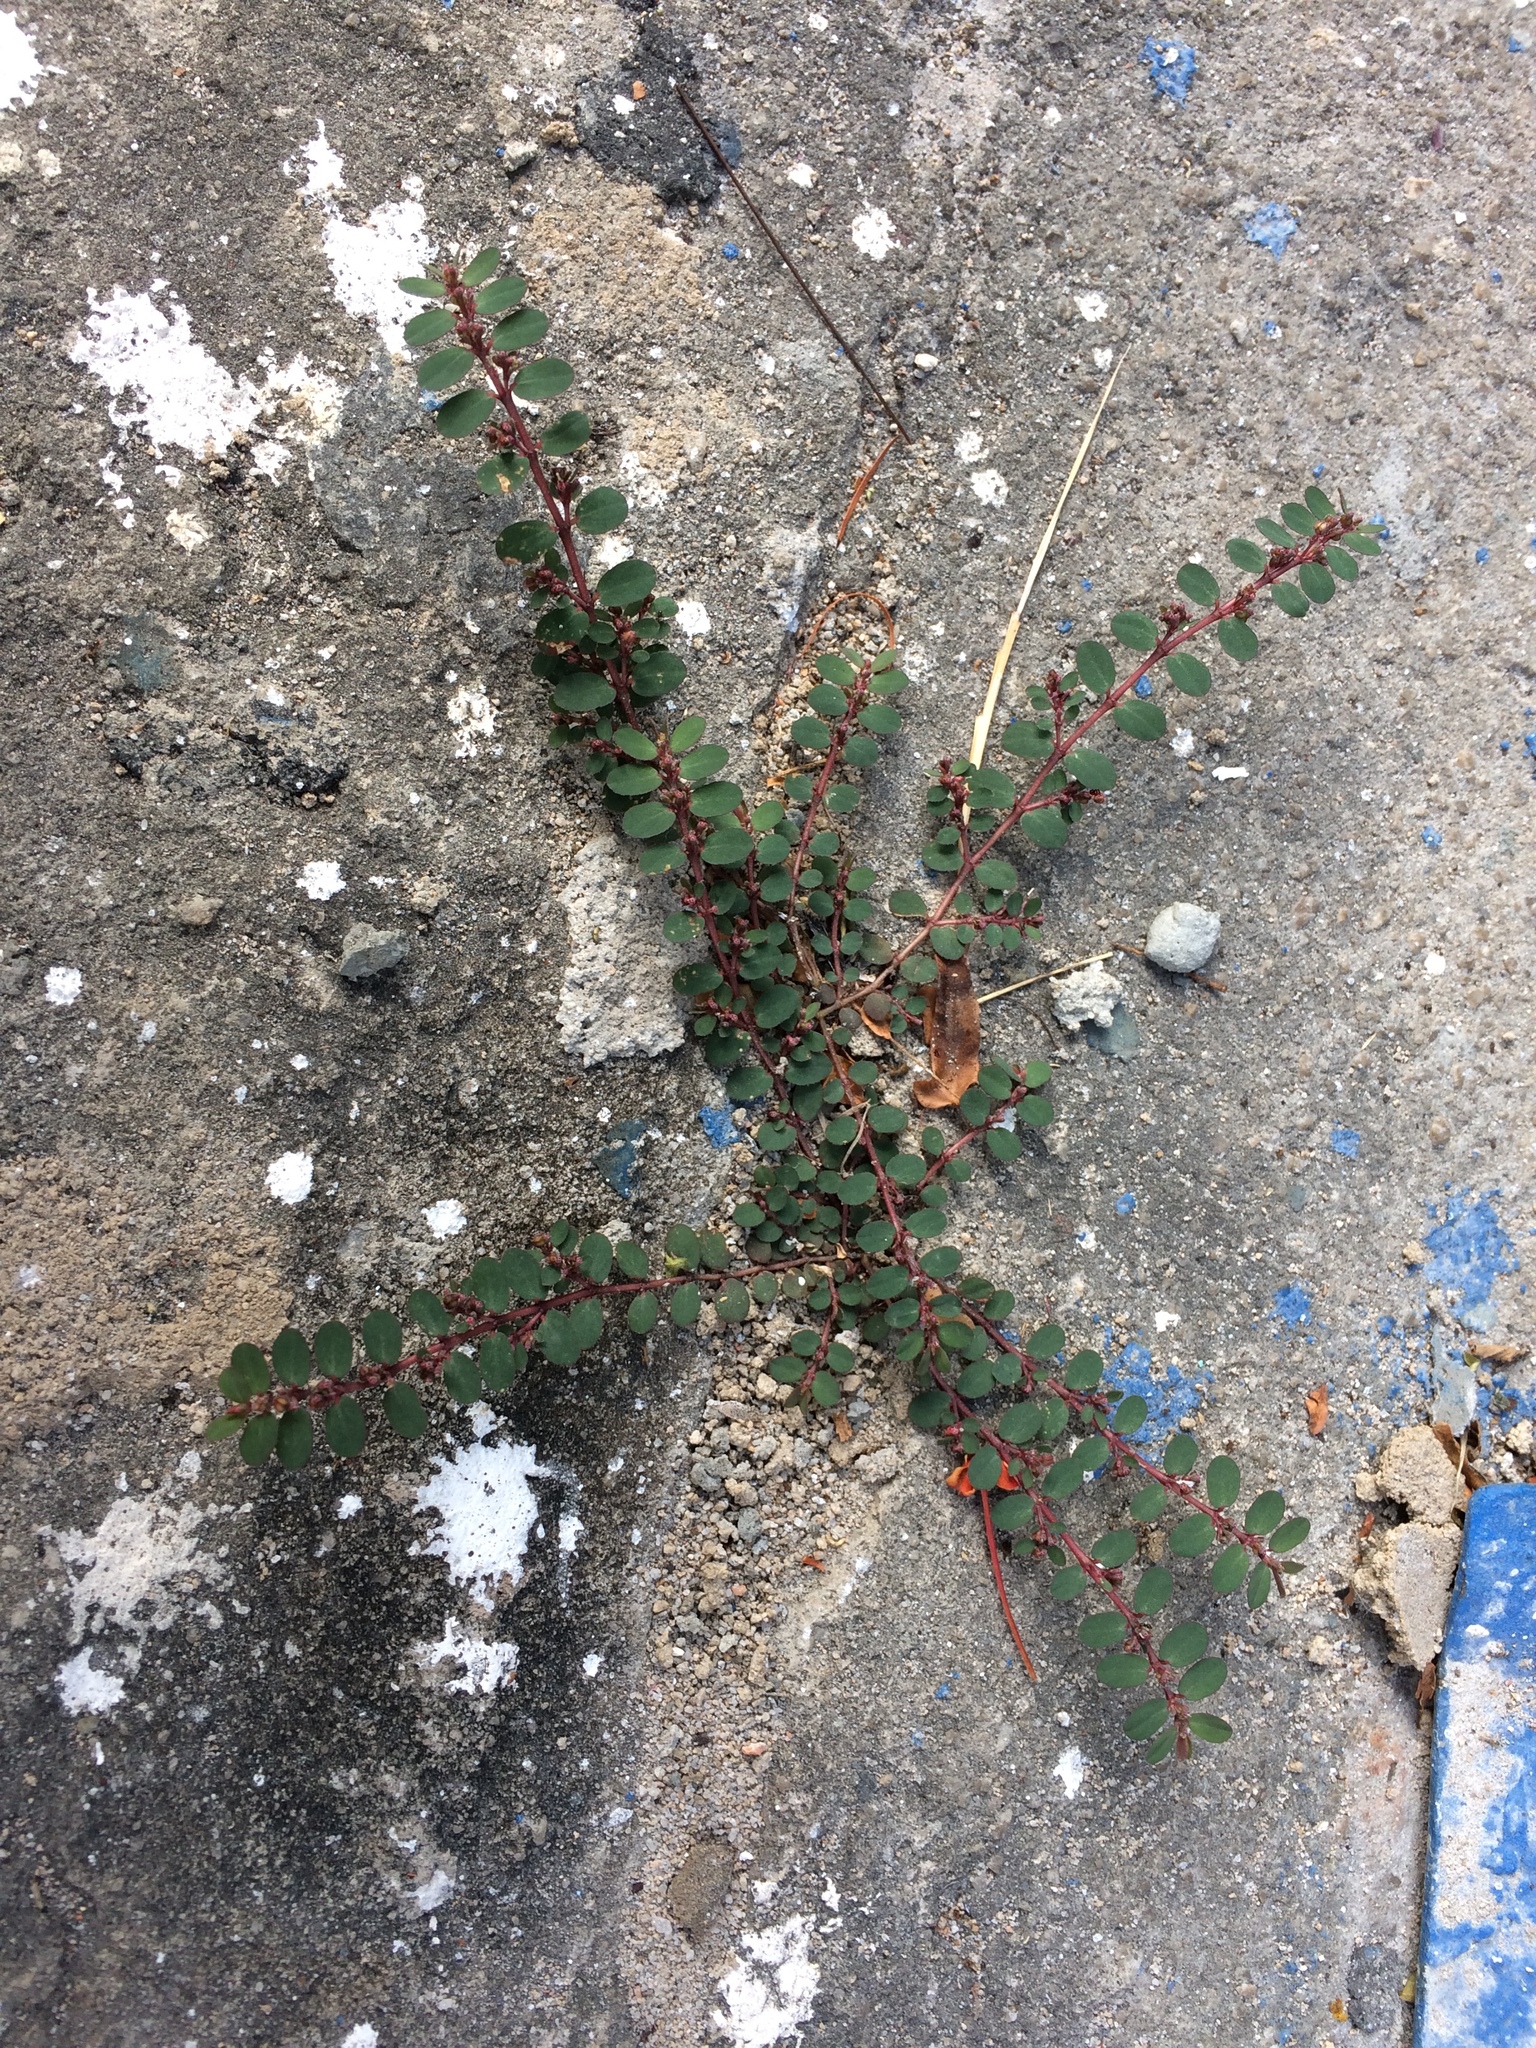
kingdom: Plantae
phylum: Tracheophyta
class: Magnoliopsida
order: Malpighiales
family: Euphorbiaceae
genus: Euphorbia
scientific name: Euphorbia prostrata
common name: Prostrate sandmat
